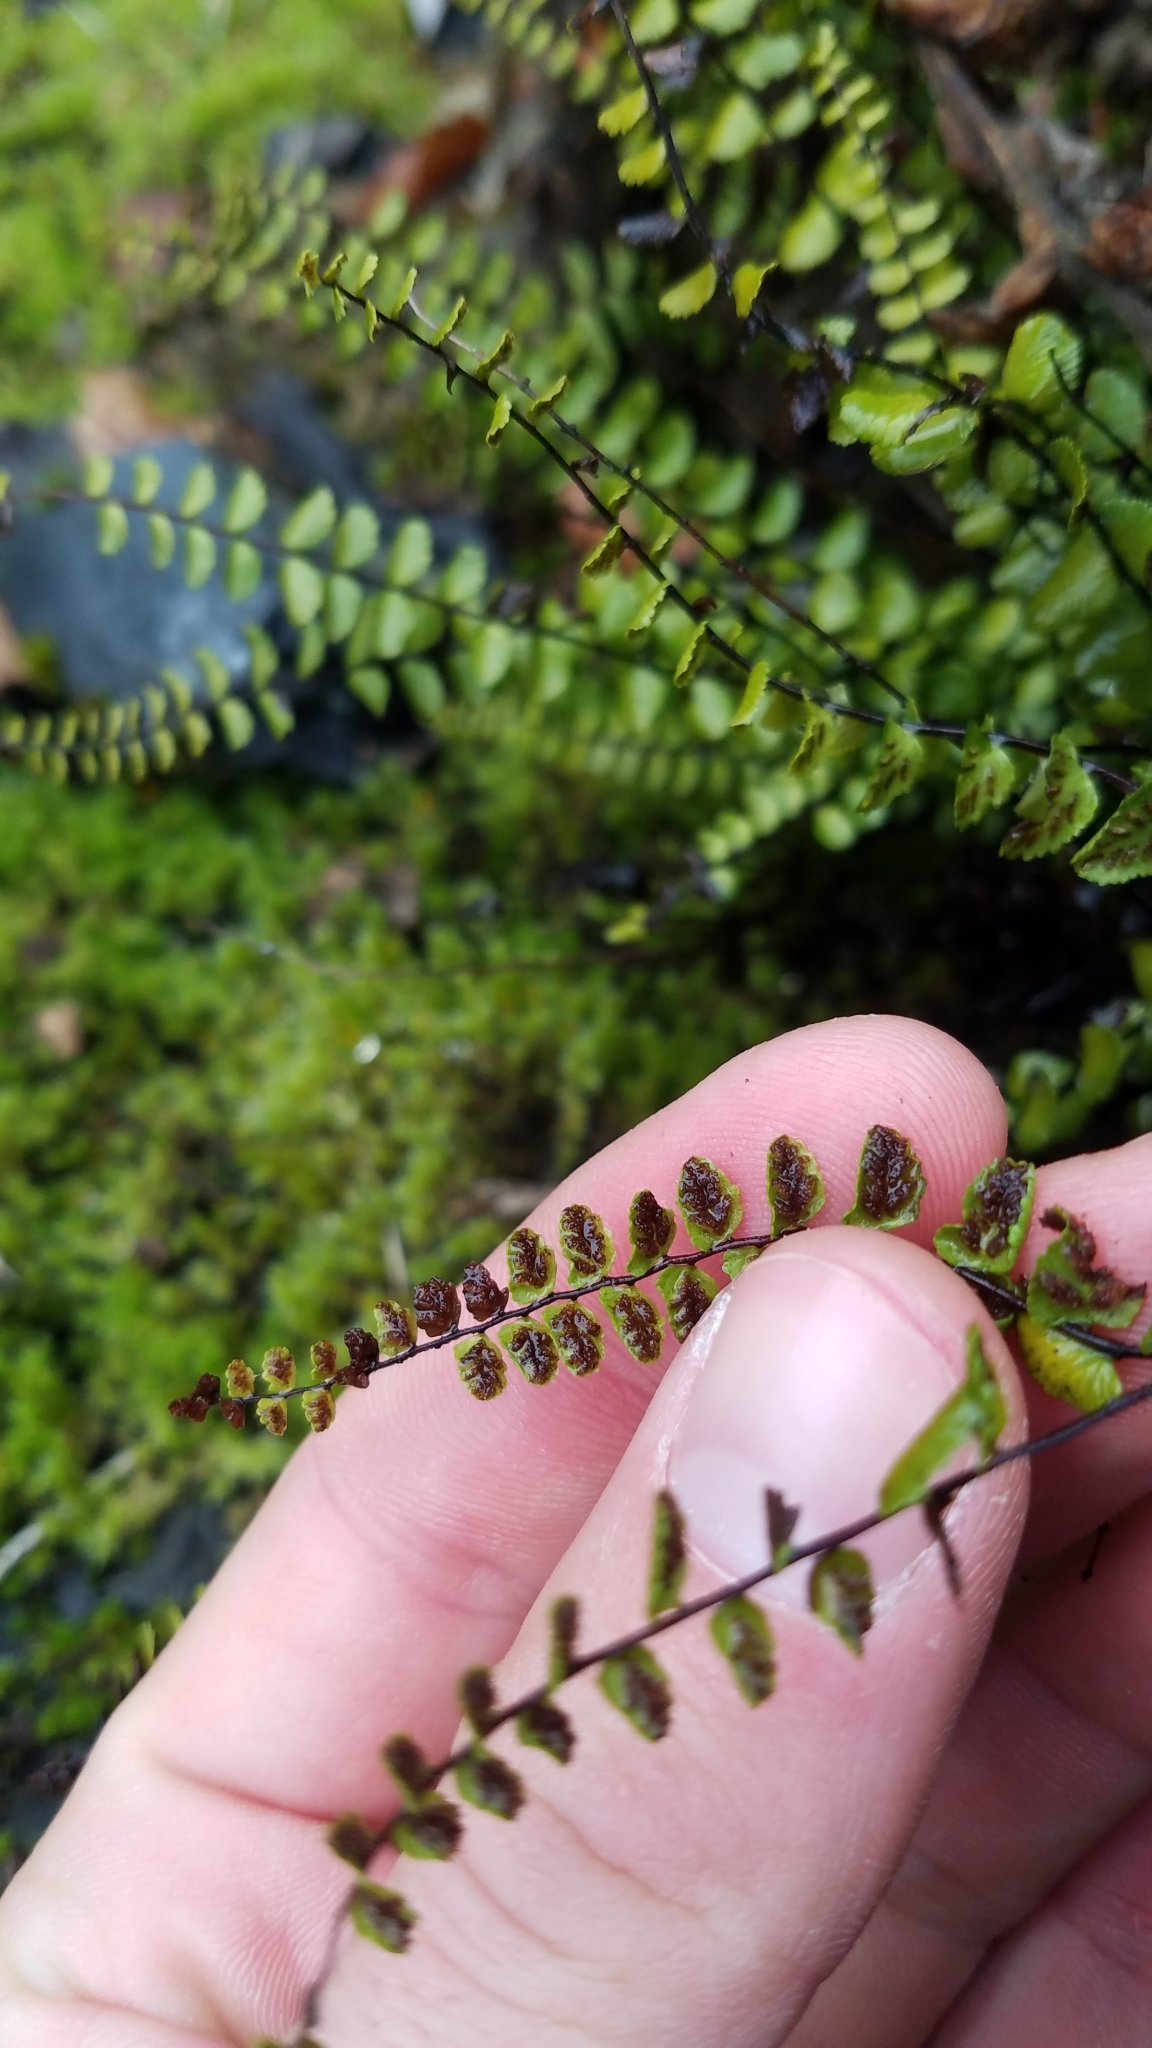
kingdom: Plantae
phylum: Tracheophyta
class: Polypodiopsida
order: Polypodiales
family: Aspleniaceae
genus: Asplenium
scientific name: Asplenium trichomanes
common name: Maidenhair spleenwort
